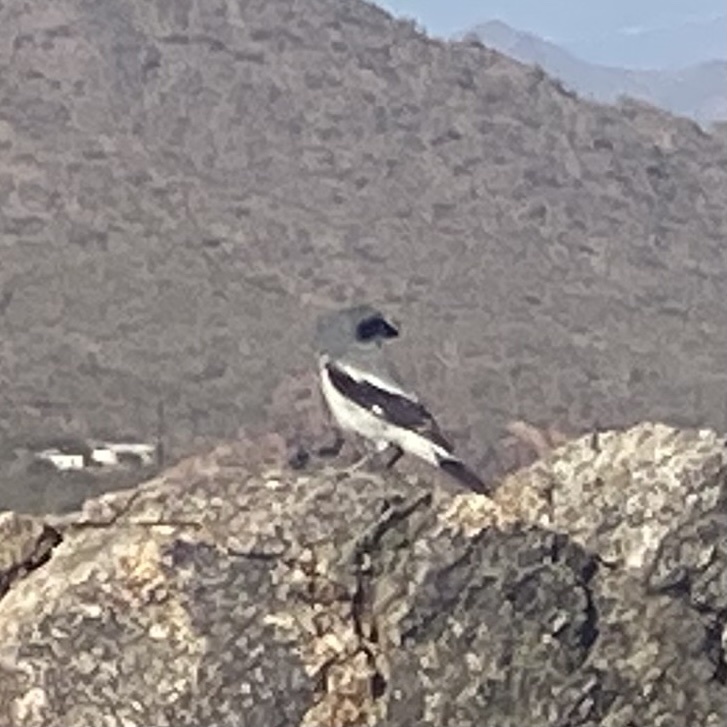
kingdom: Animalia
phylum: Chordata
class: Aves
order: Passeriformes
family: Laniidae
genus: Lanius
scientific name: Lanius ludovicianus
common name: Loggerhead shrike
